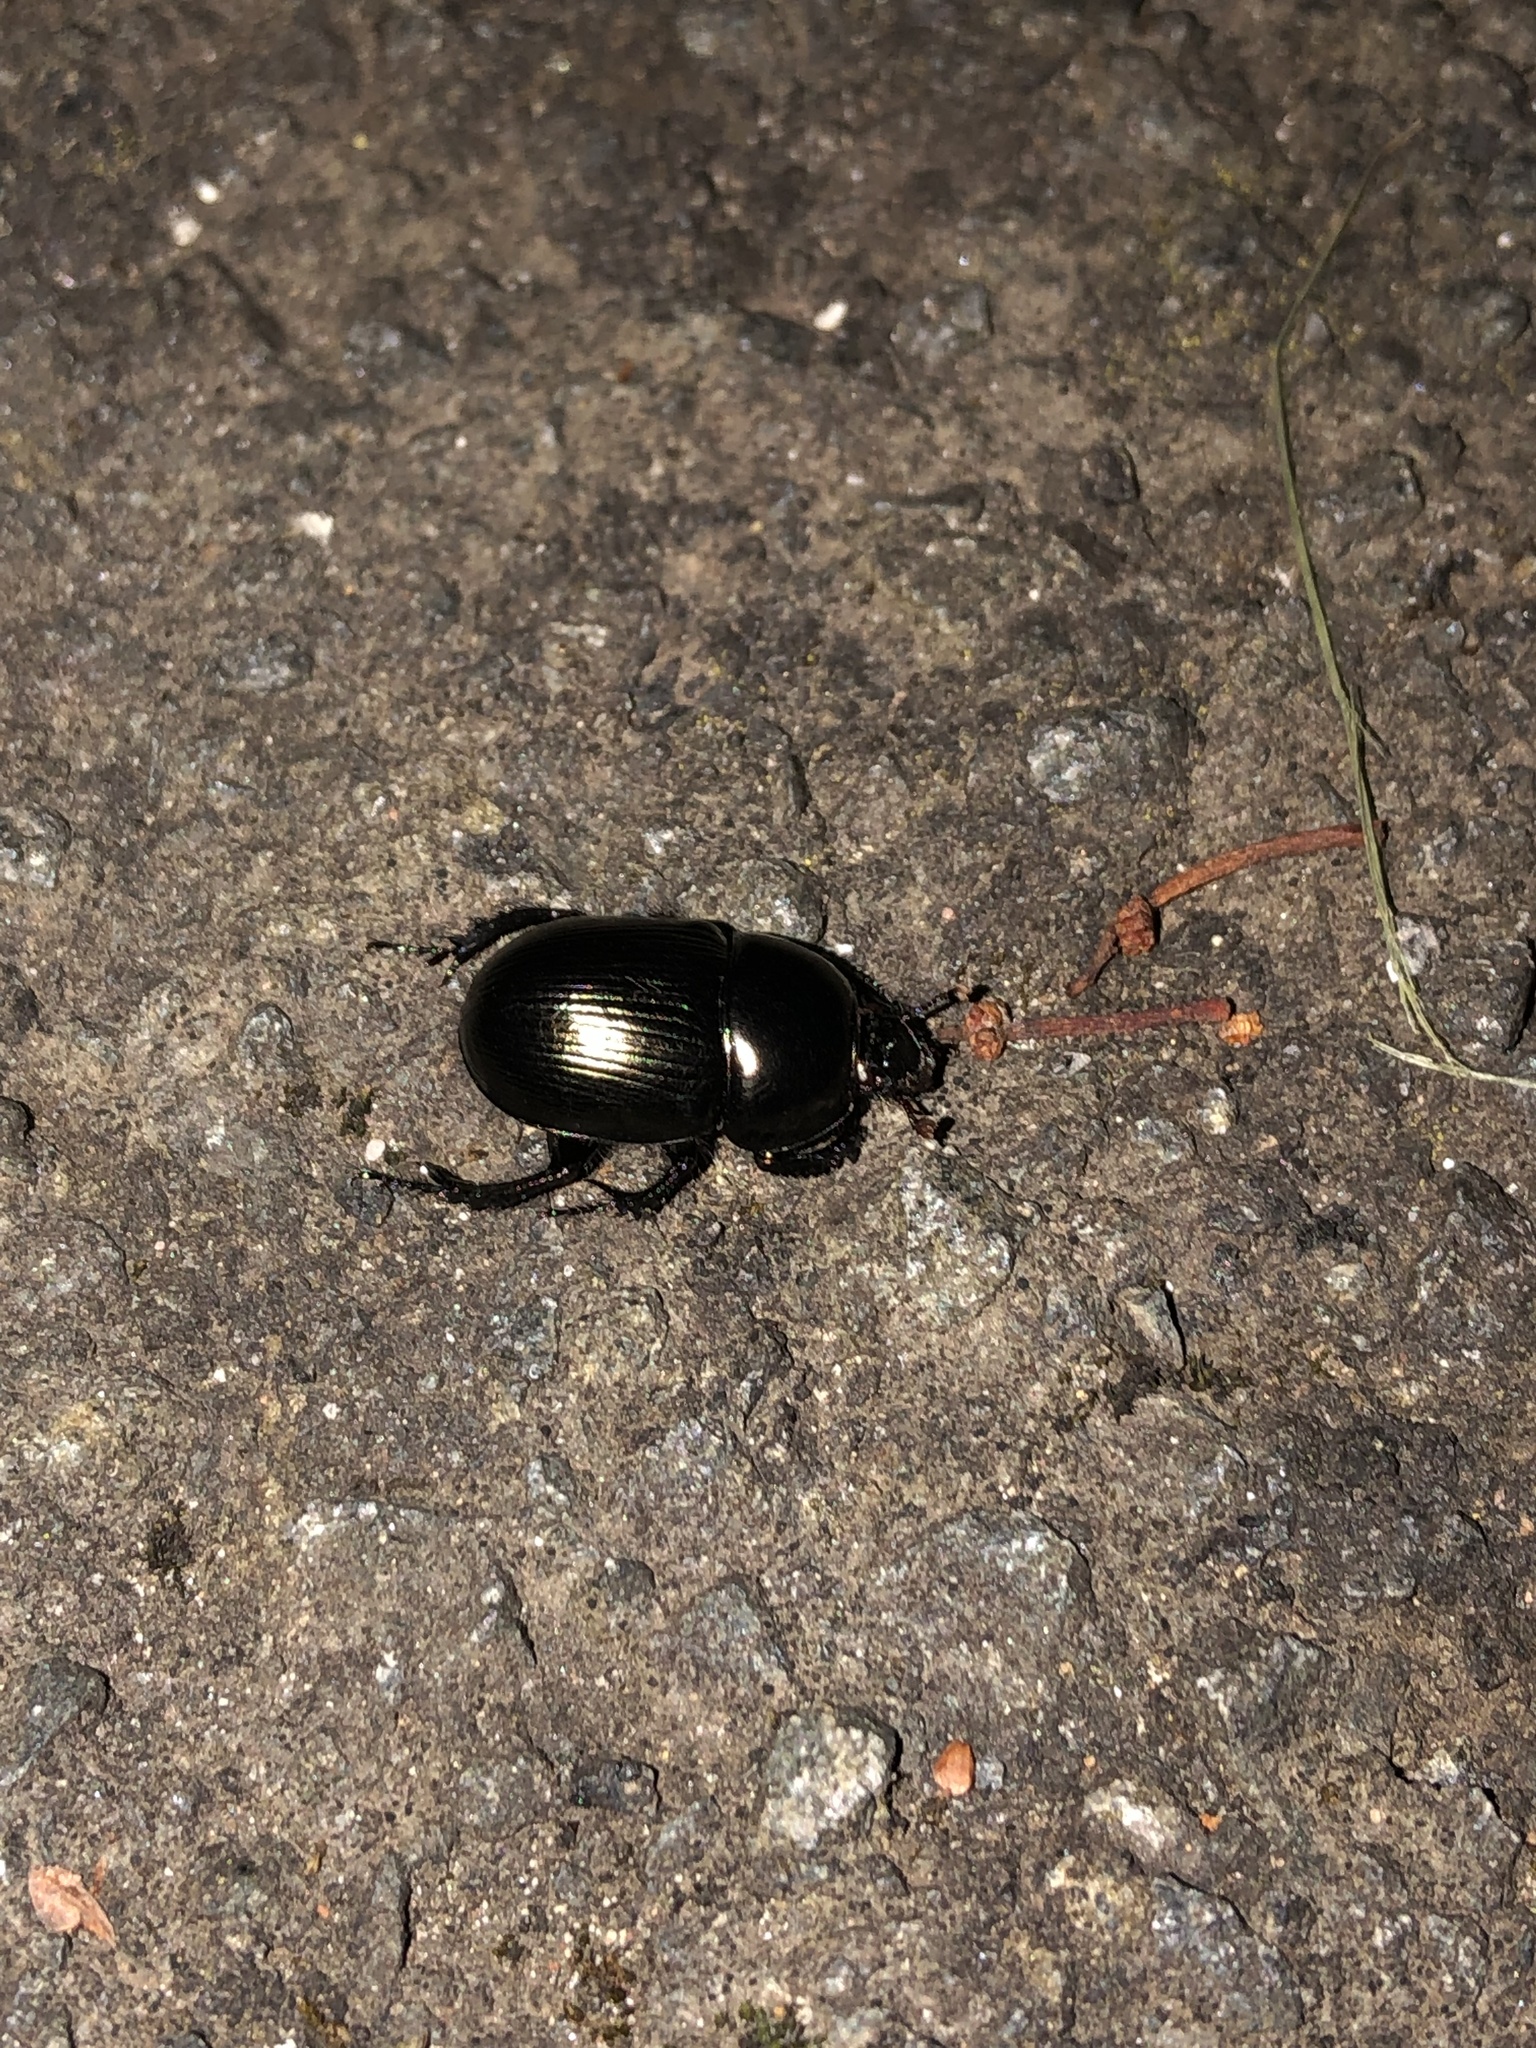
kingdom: Animalia
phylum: Arthropoda
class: Insecta
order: Coleoptera
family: Geotrupidae
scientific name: Geotrupidae
